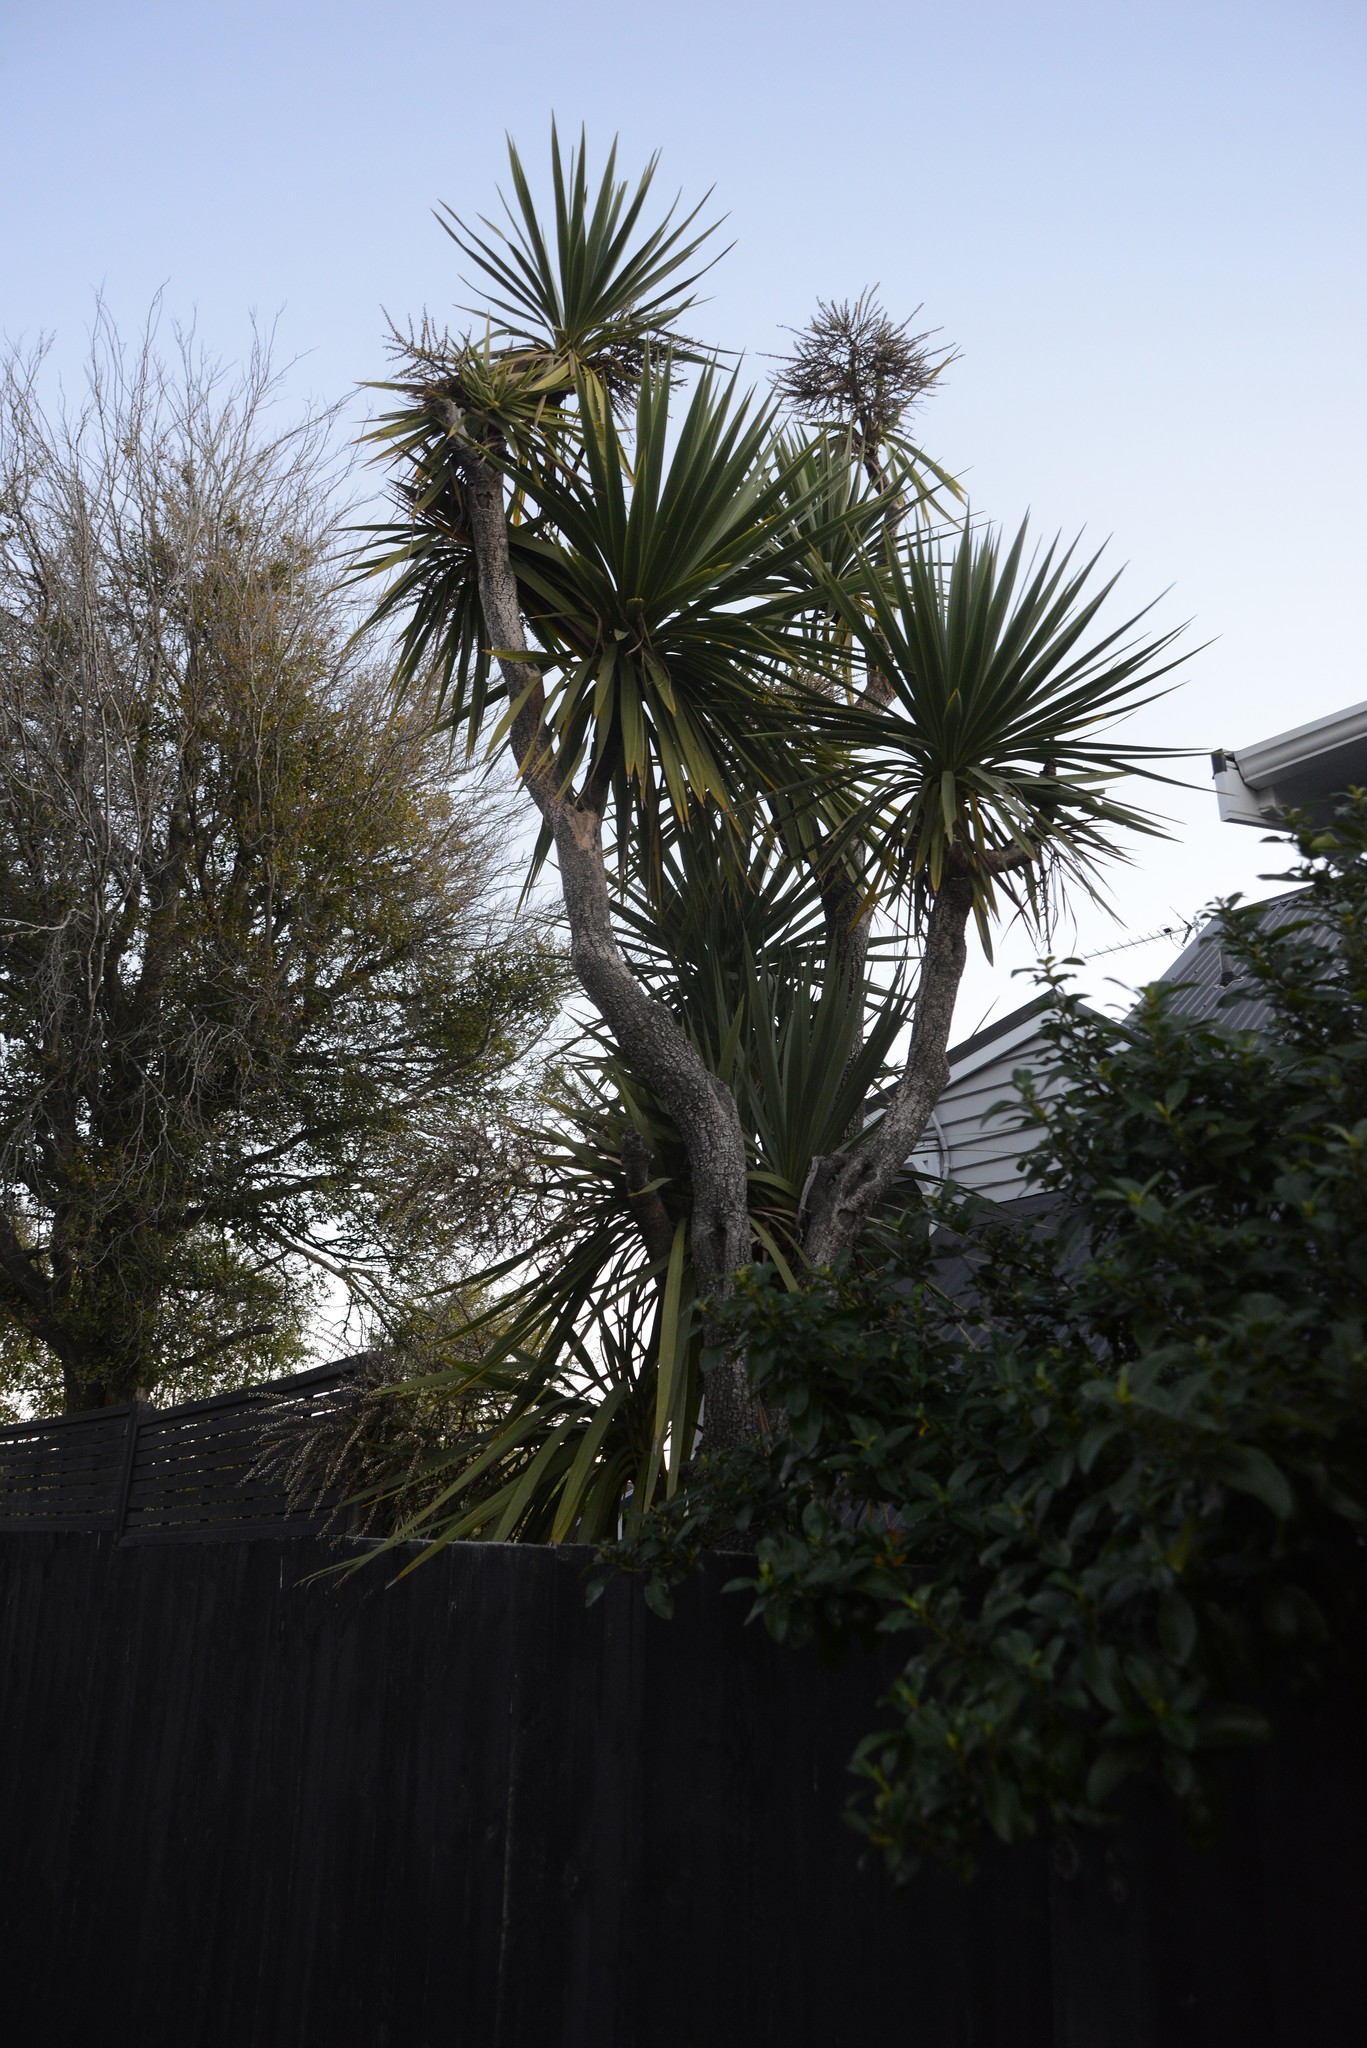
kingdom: Plantae
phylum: Tracheophyta
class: Liliopsida
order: Asparagales
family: Asparagaceae
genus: Cordyline
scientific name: Cordyline australis
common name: Cabbage-palm
